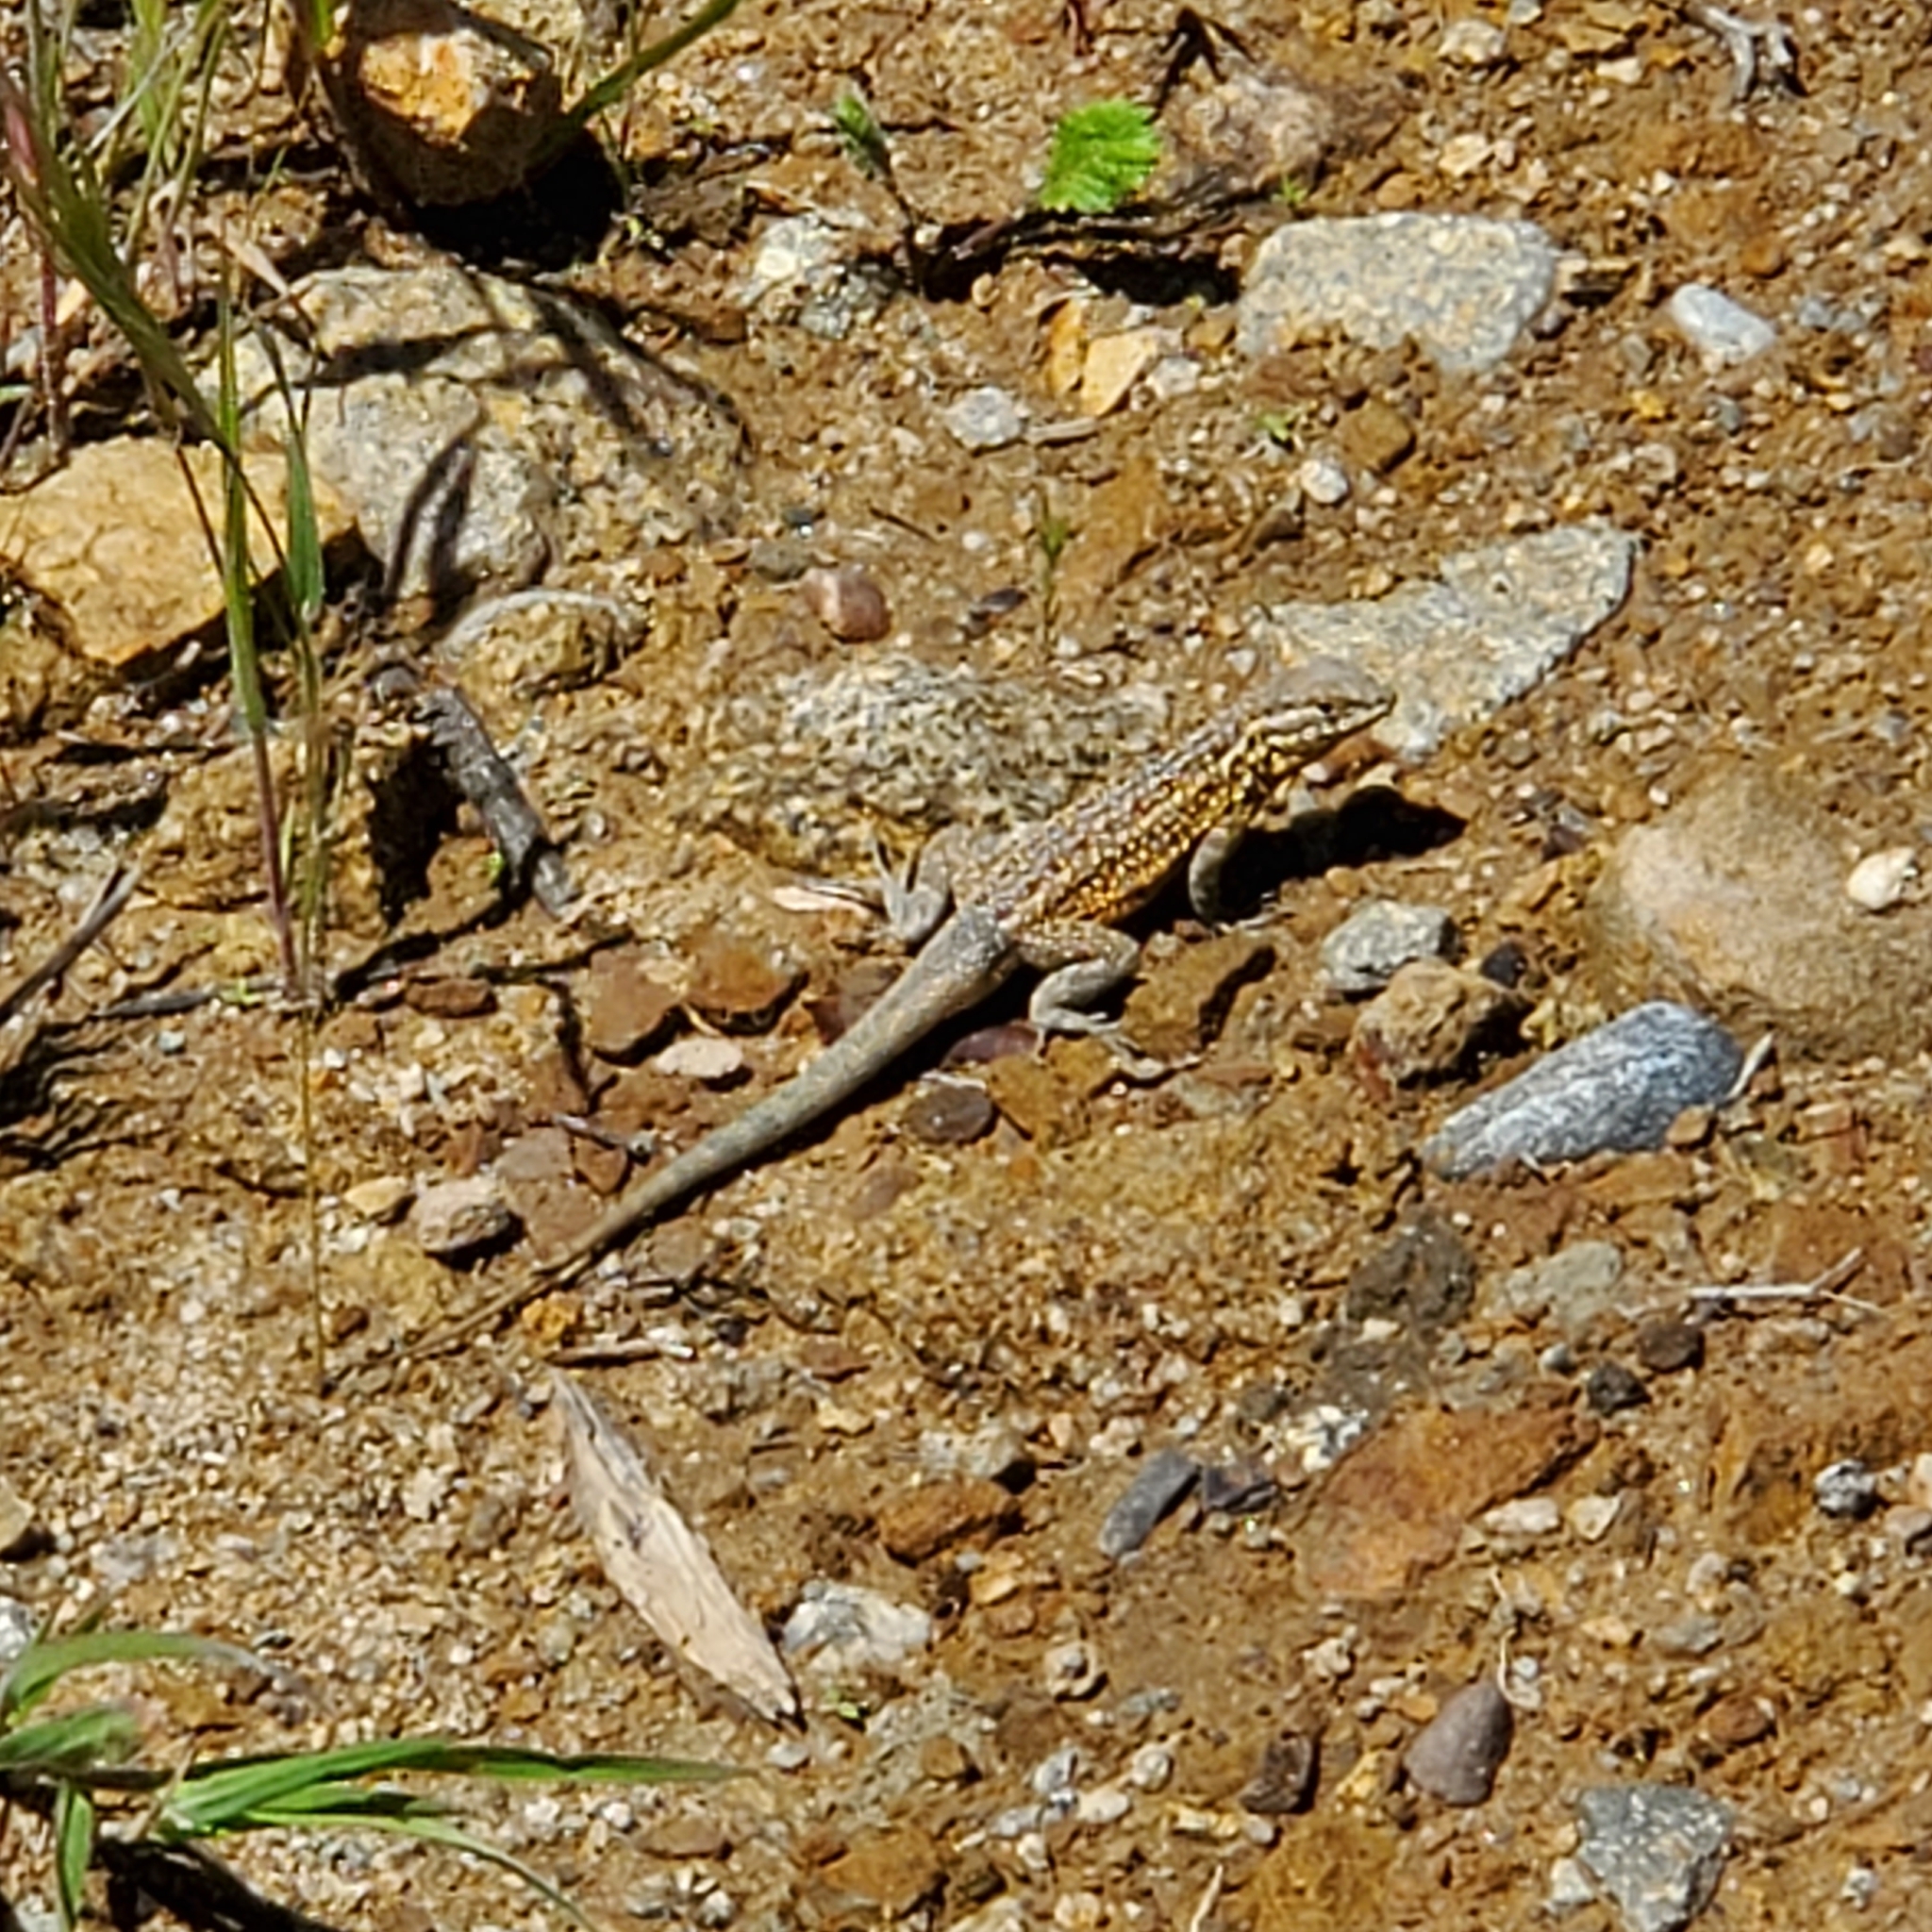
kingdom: Animalia
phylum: Chordata
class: Squamata
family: Phrynosomatidae
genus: Uta
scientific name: Uta stansburiana
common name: Side-blotched lizard
